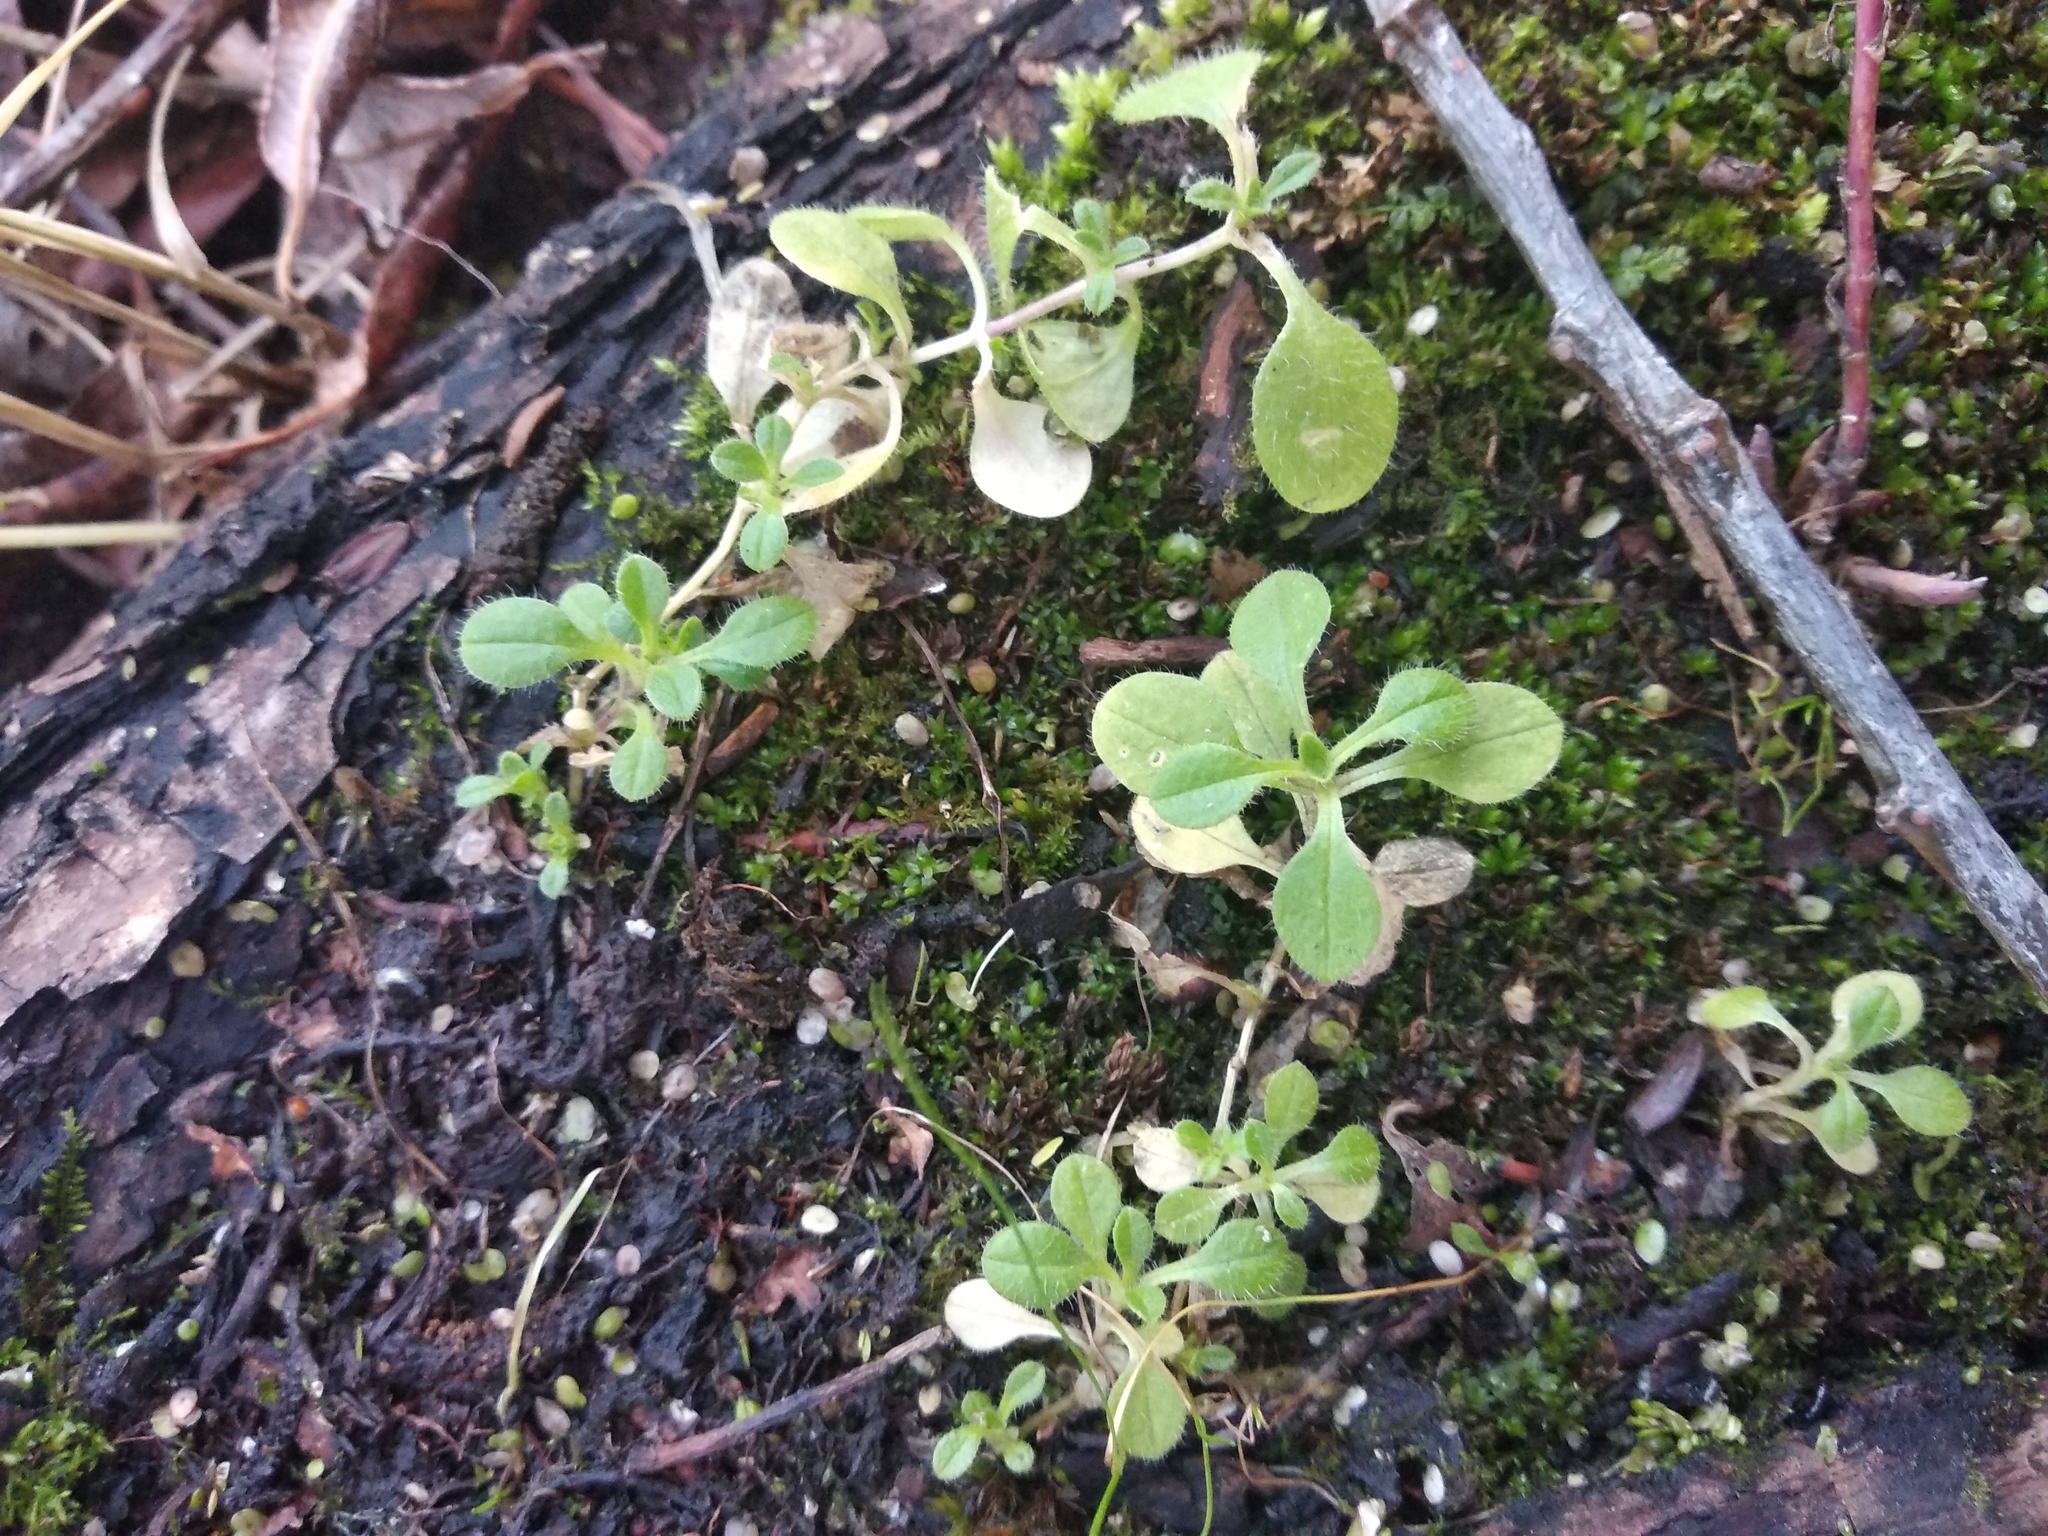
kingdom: Plantae
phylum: Tracheophyta
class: Magnoliopsida
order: Caryophyllales
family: Caryophyllaceae
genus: Cerastium
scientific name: Cerastium holosteoides
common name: Big chickweed
